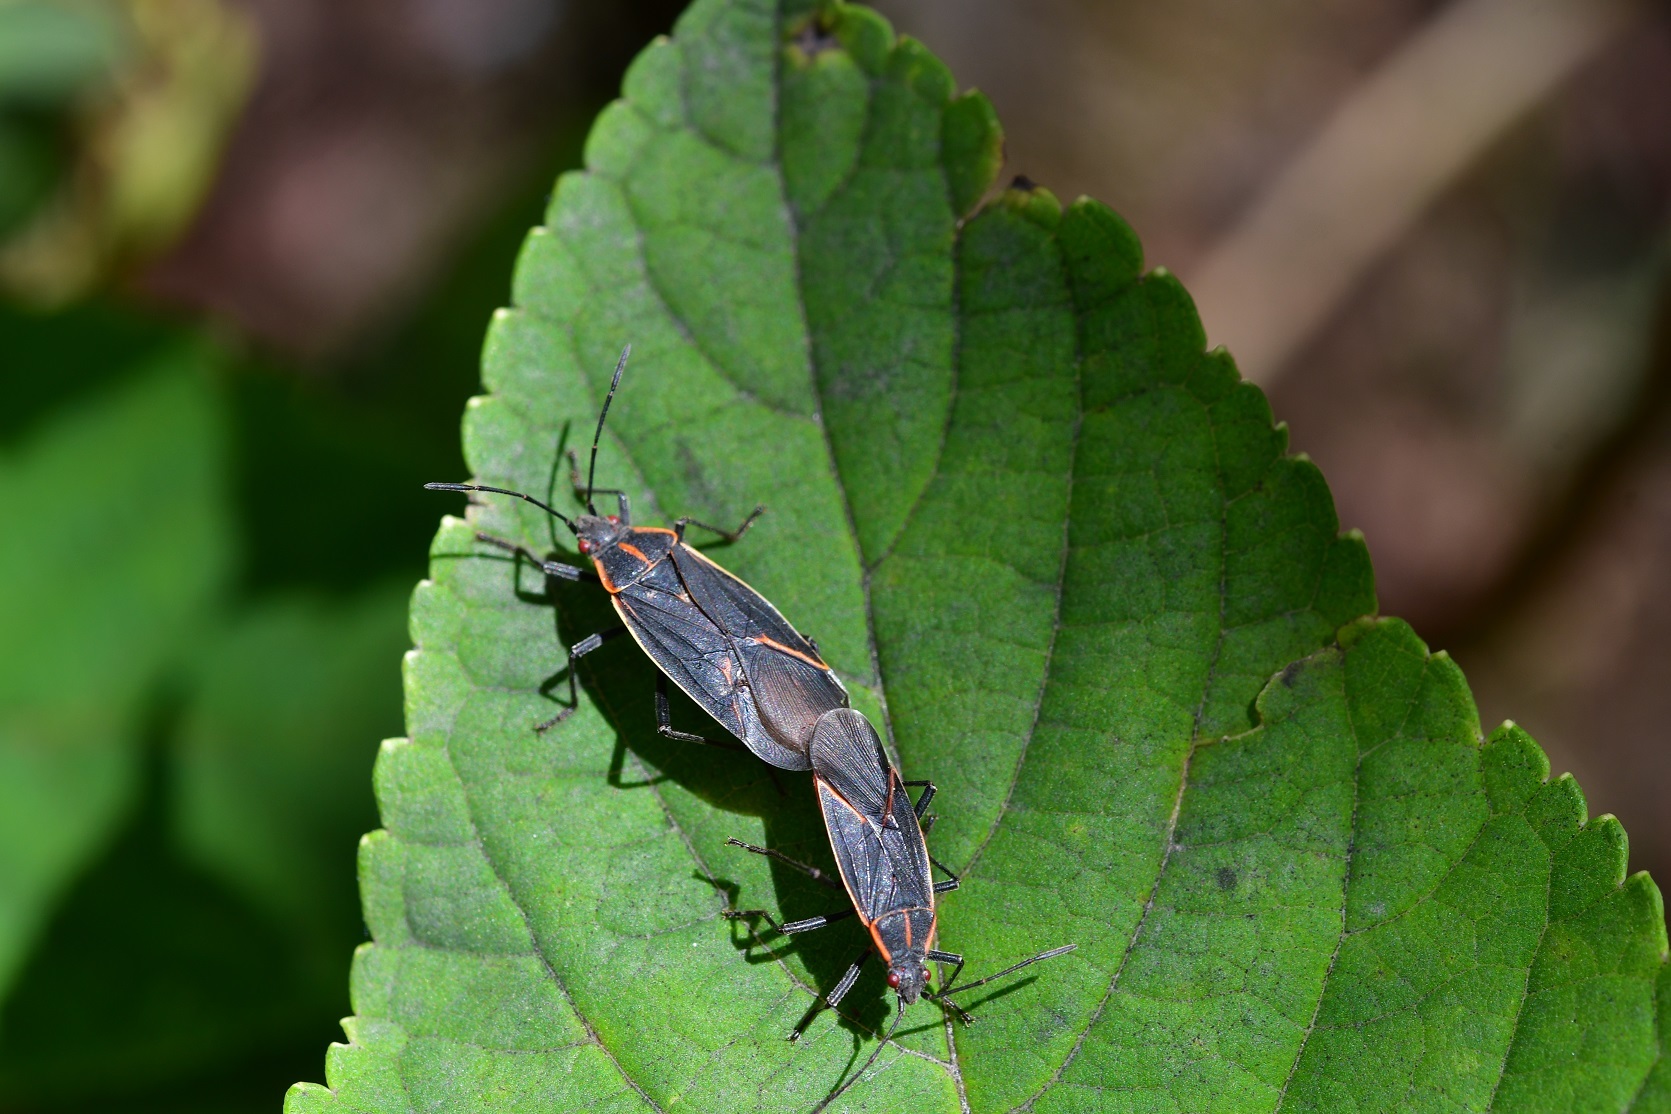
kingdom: Animalia
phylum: Arthropoda
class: Insecta
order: Hemiptera
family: Rhopalidae
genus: Boisea
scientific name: Boisea trivittata
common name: Boxelder bug
